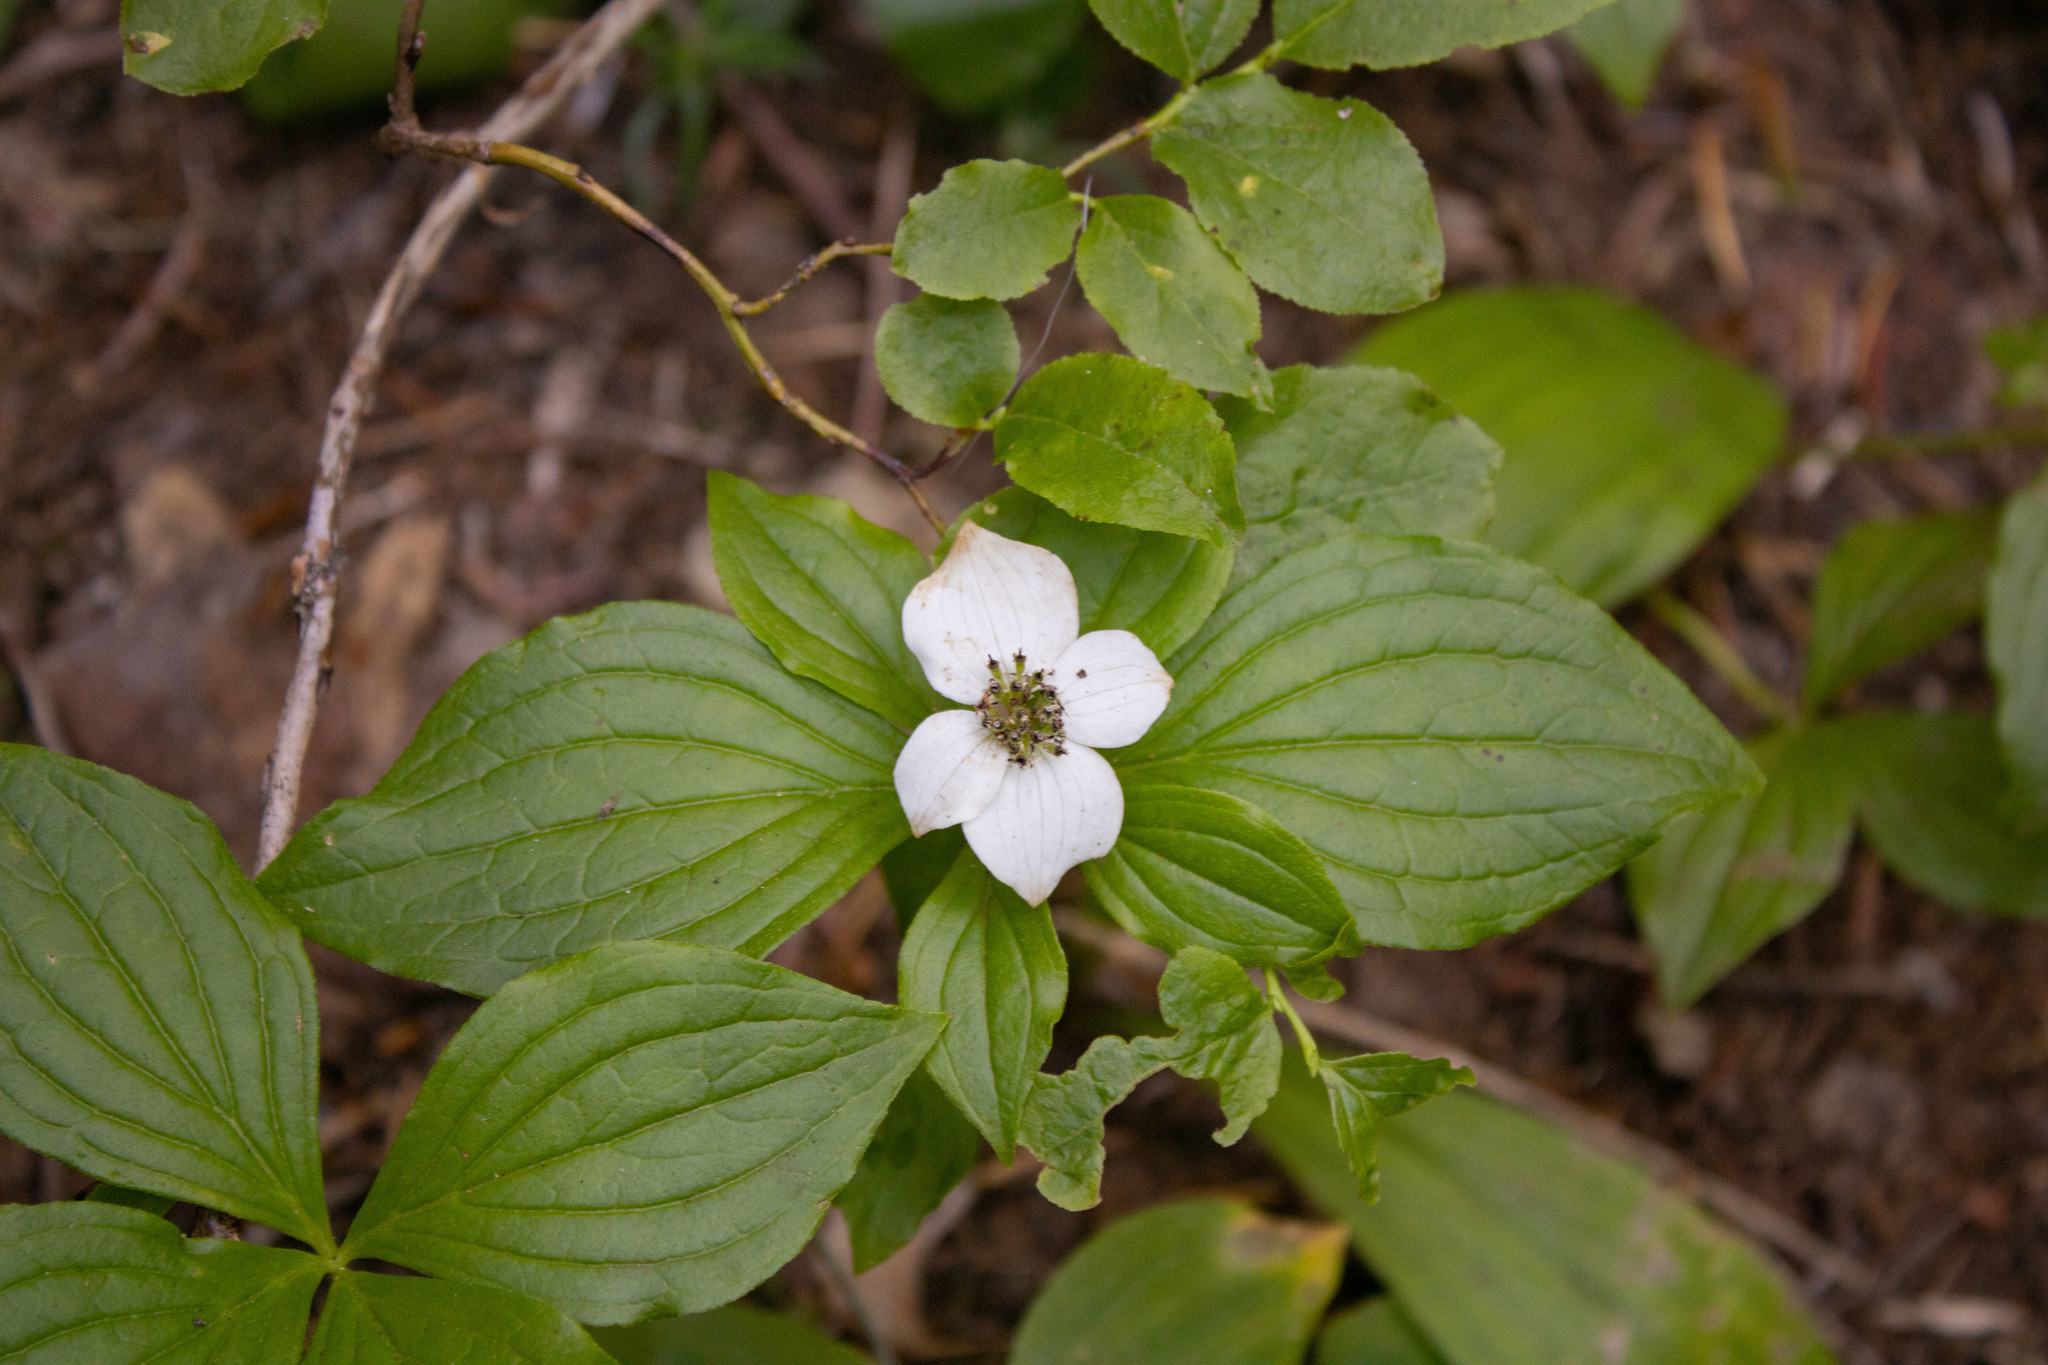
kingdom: Plantae
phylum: Tracheophyta
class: Magnoliopsida
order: Cornales
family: Cornaceae
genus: Cornus
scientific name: Cornus unalaschkensis
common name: Alaska bunchberry
